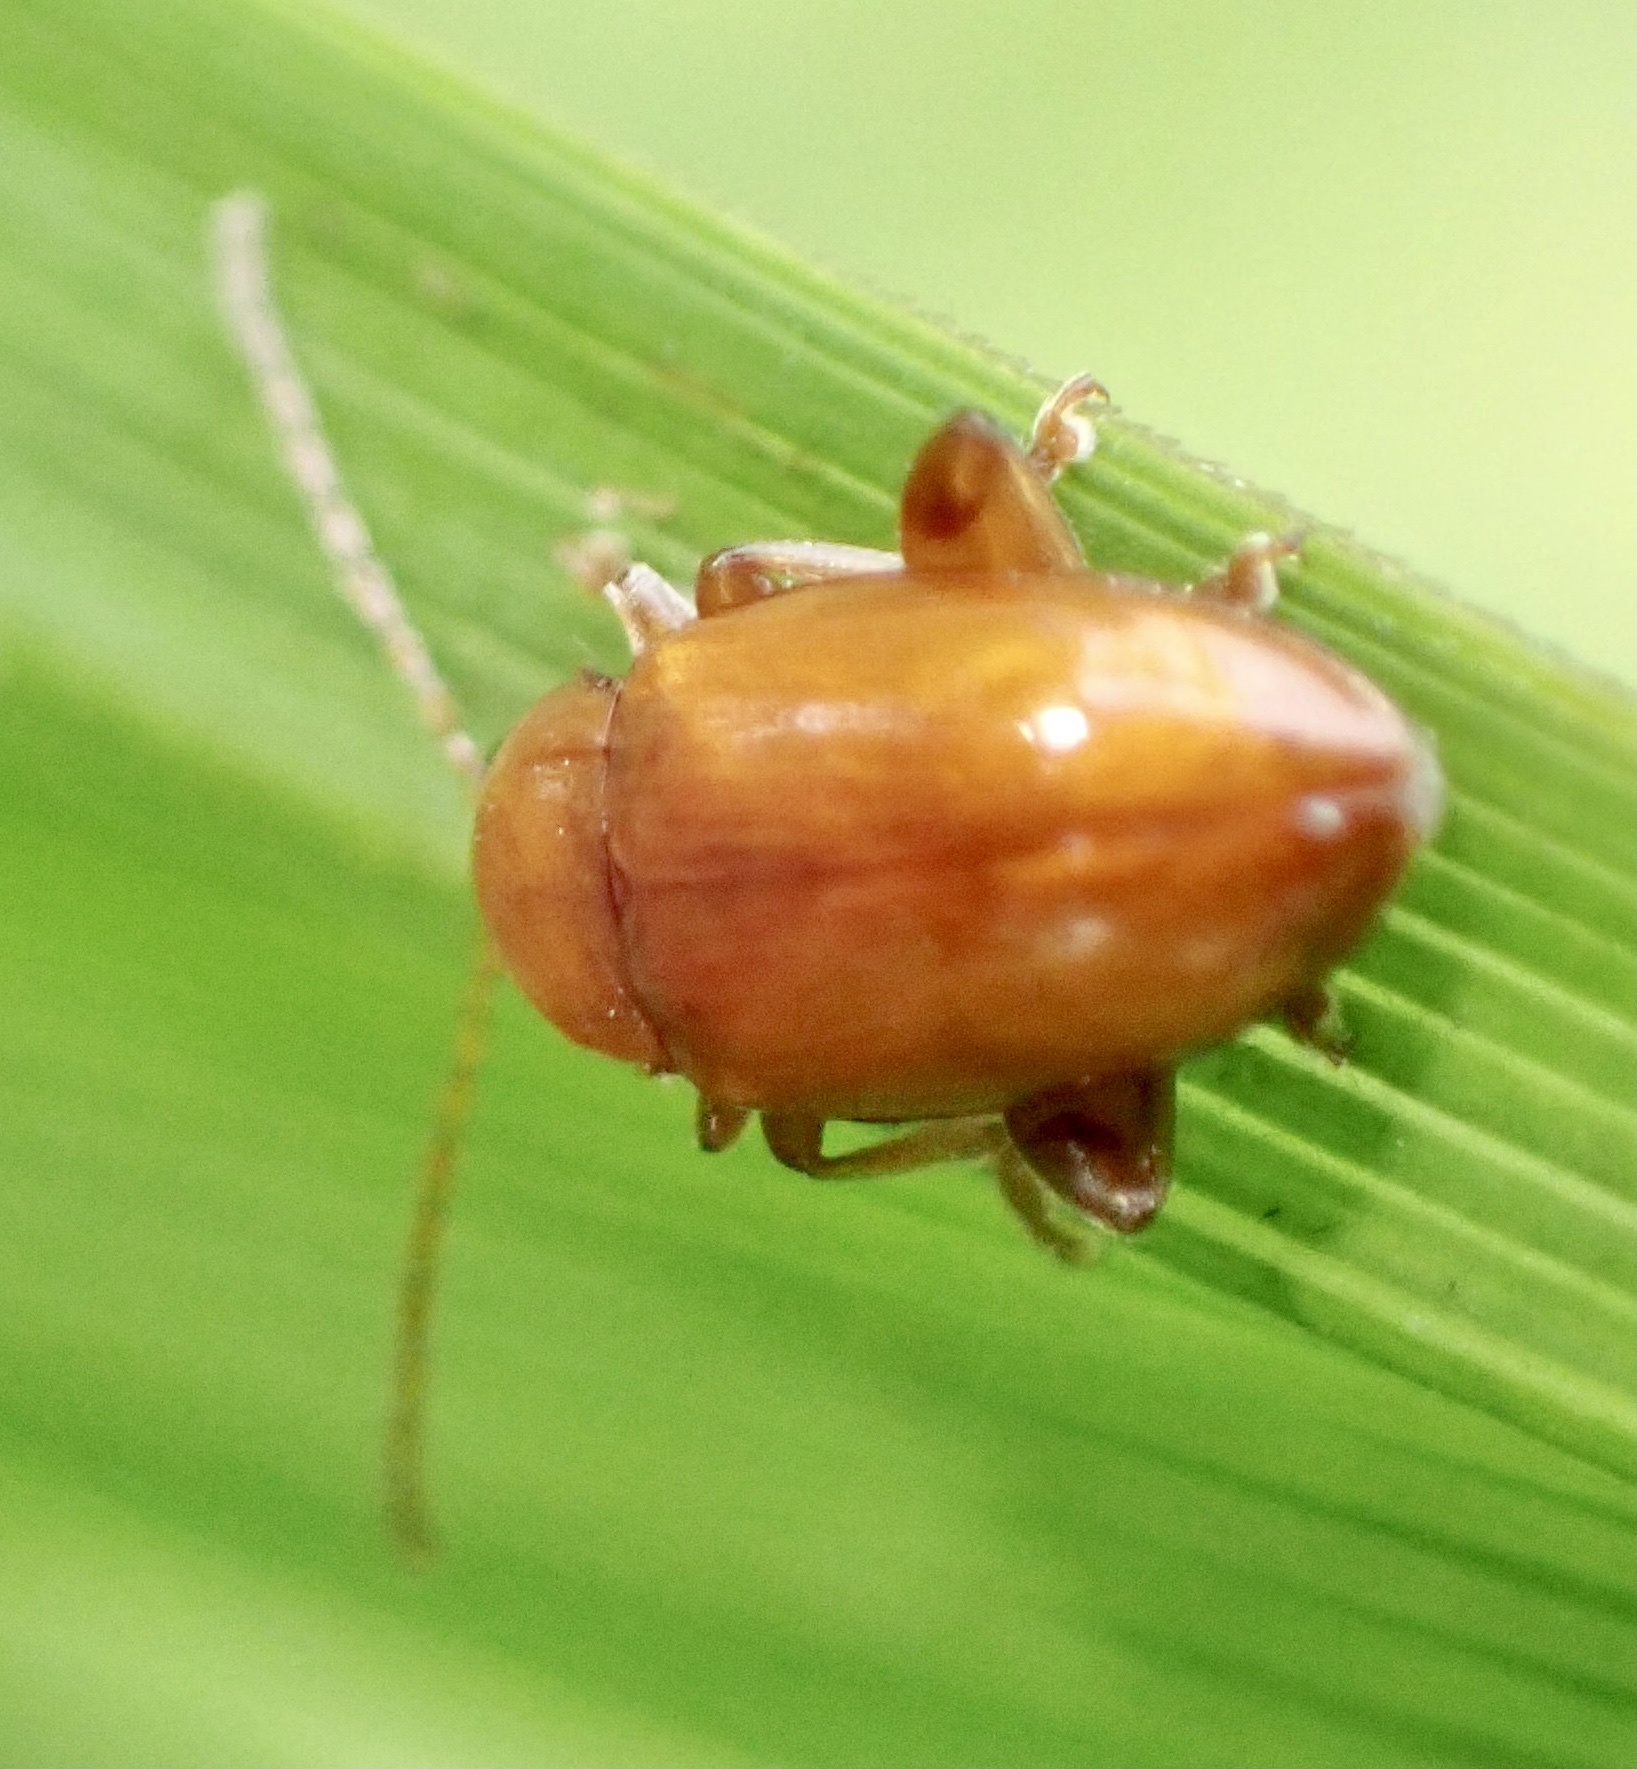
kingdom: Animalia
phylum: Arthropoda
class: Insecta
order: Coleoptera
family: Chrysomelidae
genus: Neocrepidodera
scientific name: Neocrepidodera transversa
